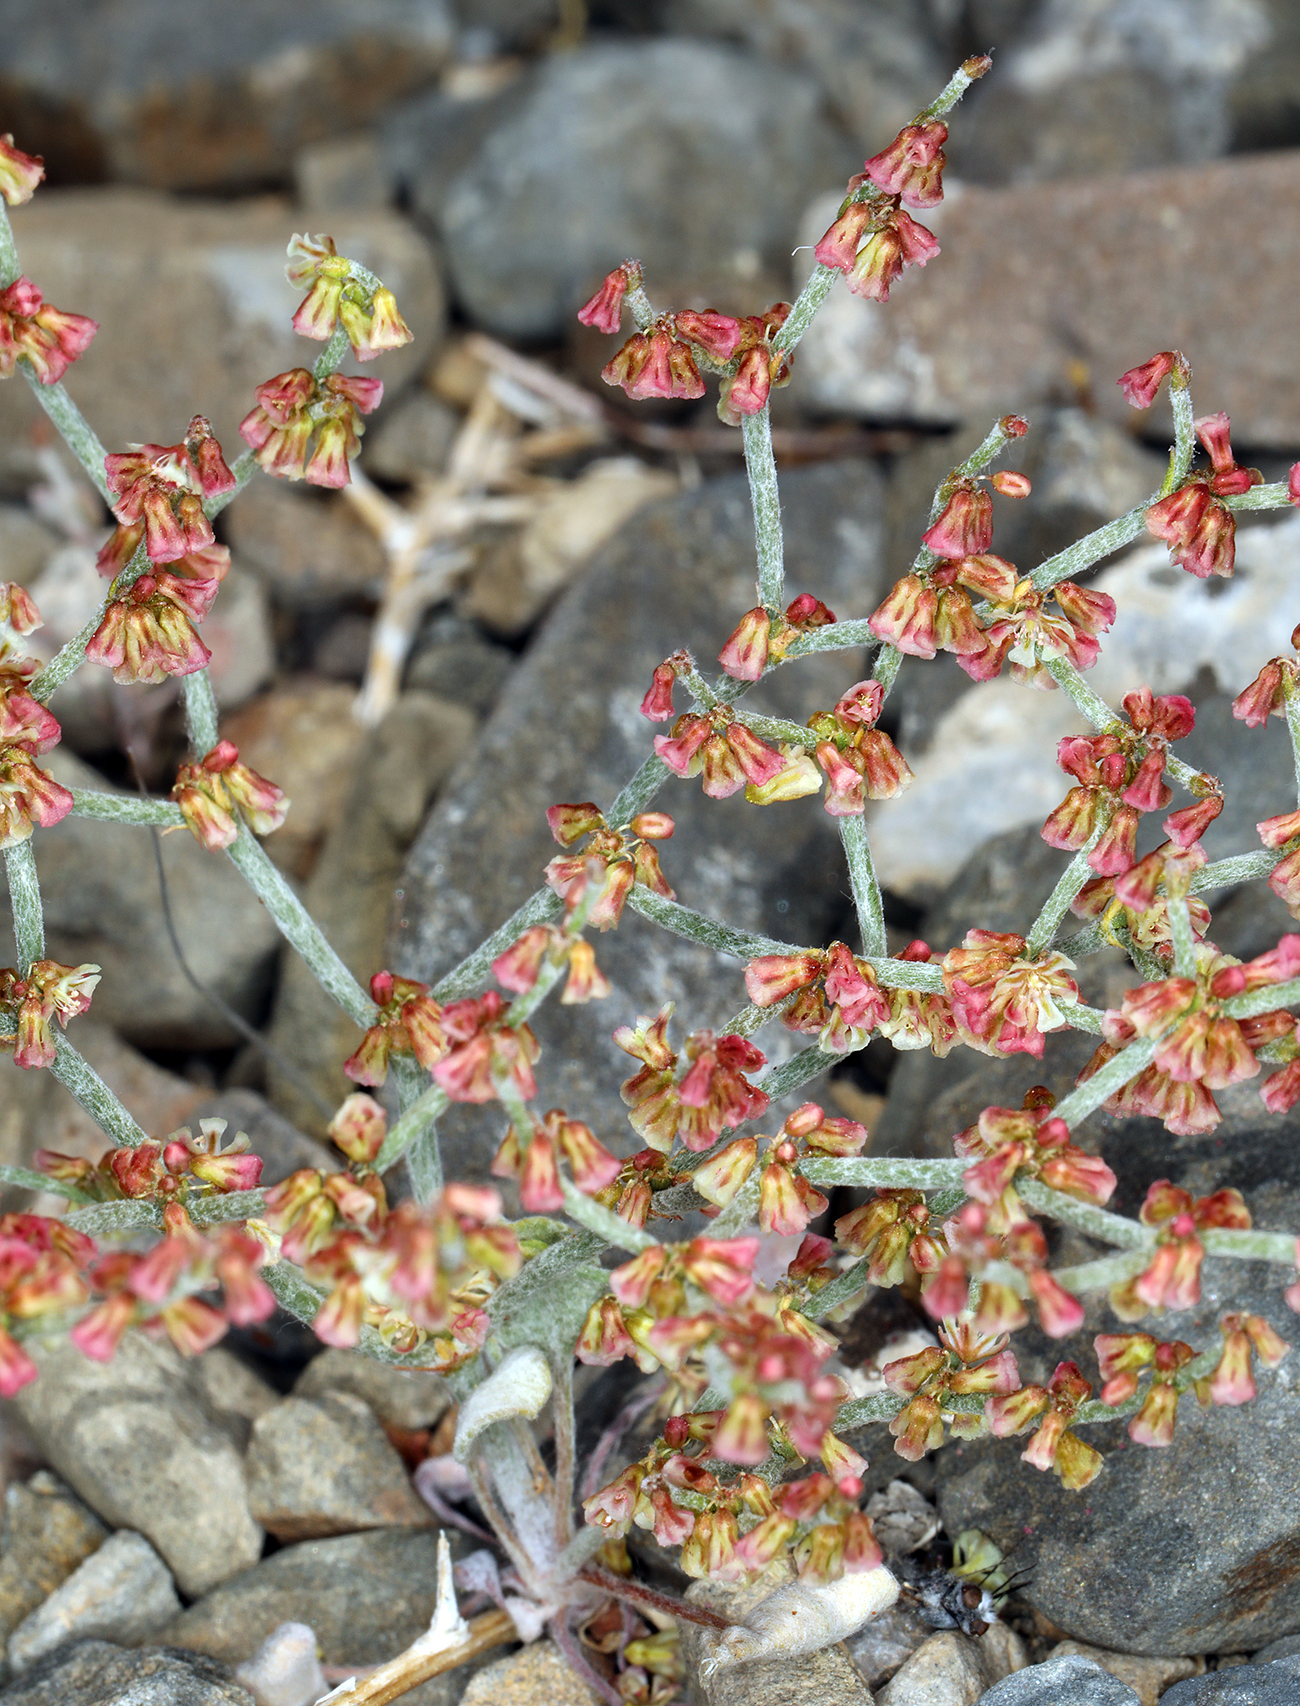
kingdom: Plantae
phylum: Tracheophyta
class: Magnoliopsida
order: Caryophyllales
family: Polygonaceae
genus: Eriogonum
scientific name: Eriogonum nidularium
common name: Bird's-nest wild buckwheat
